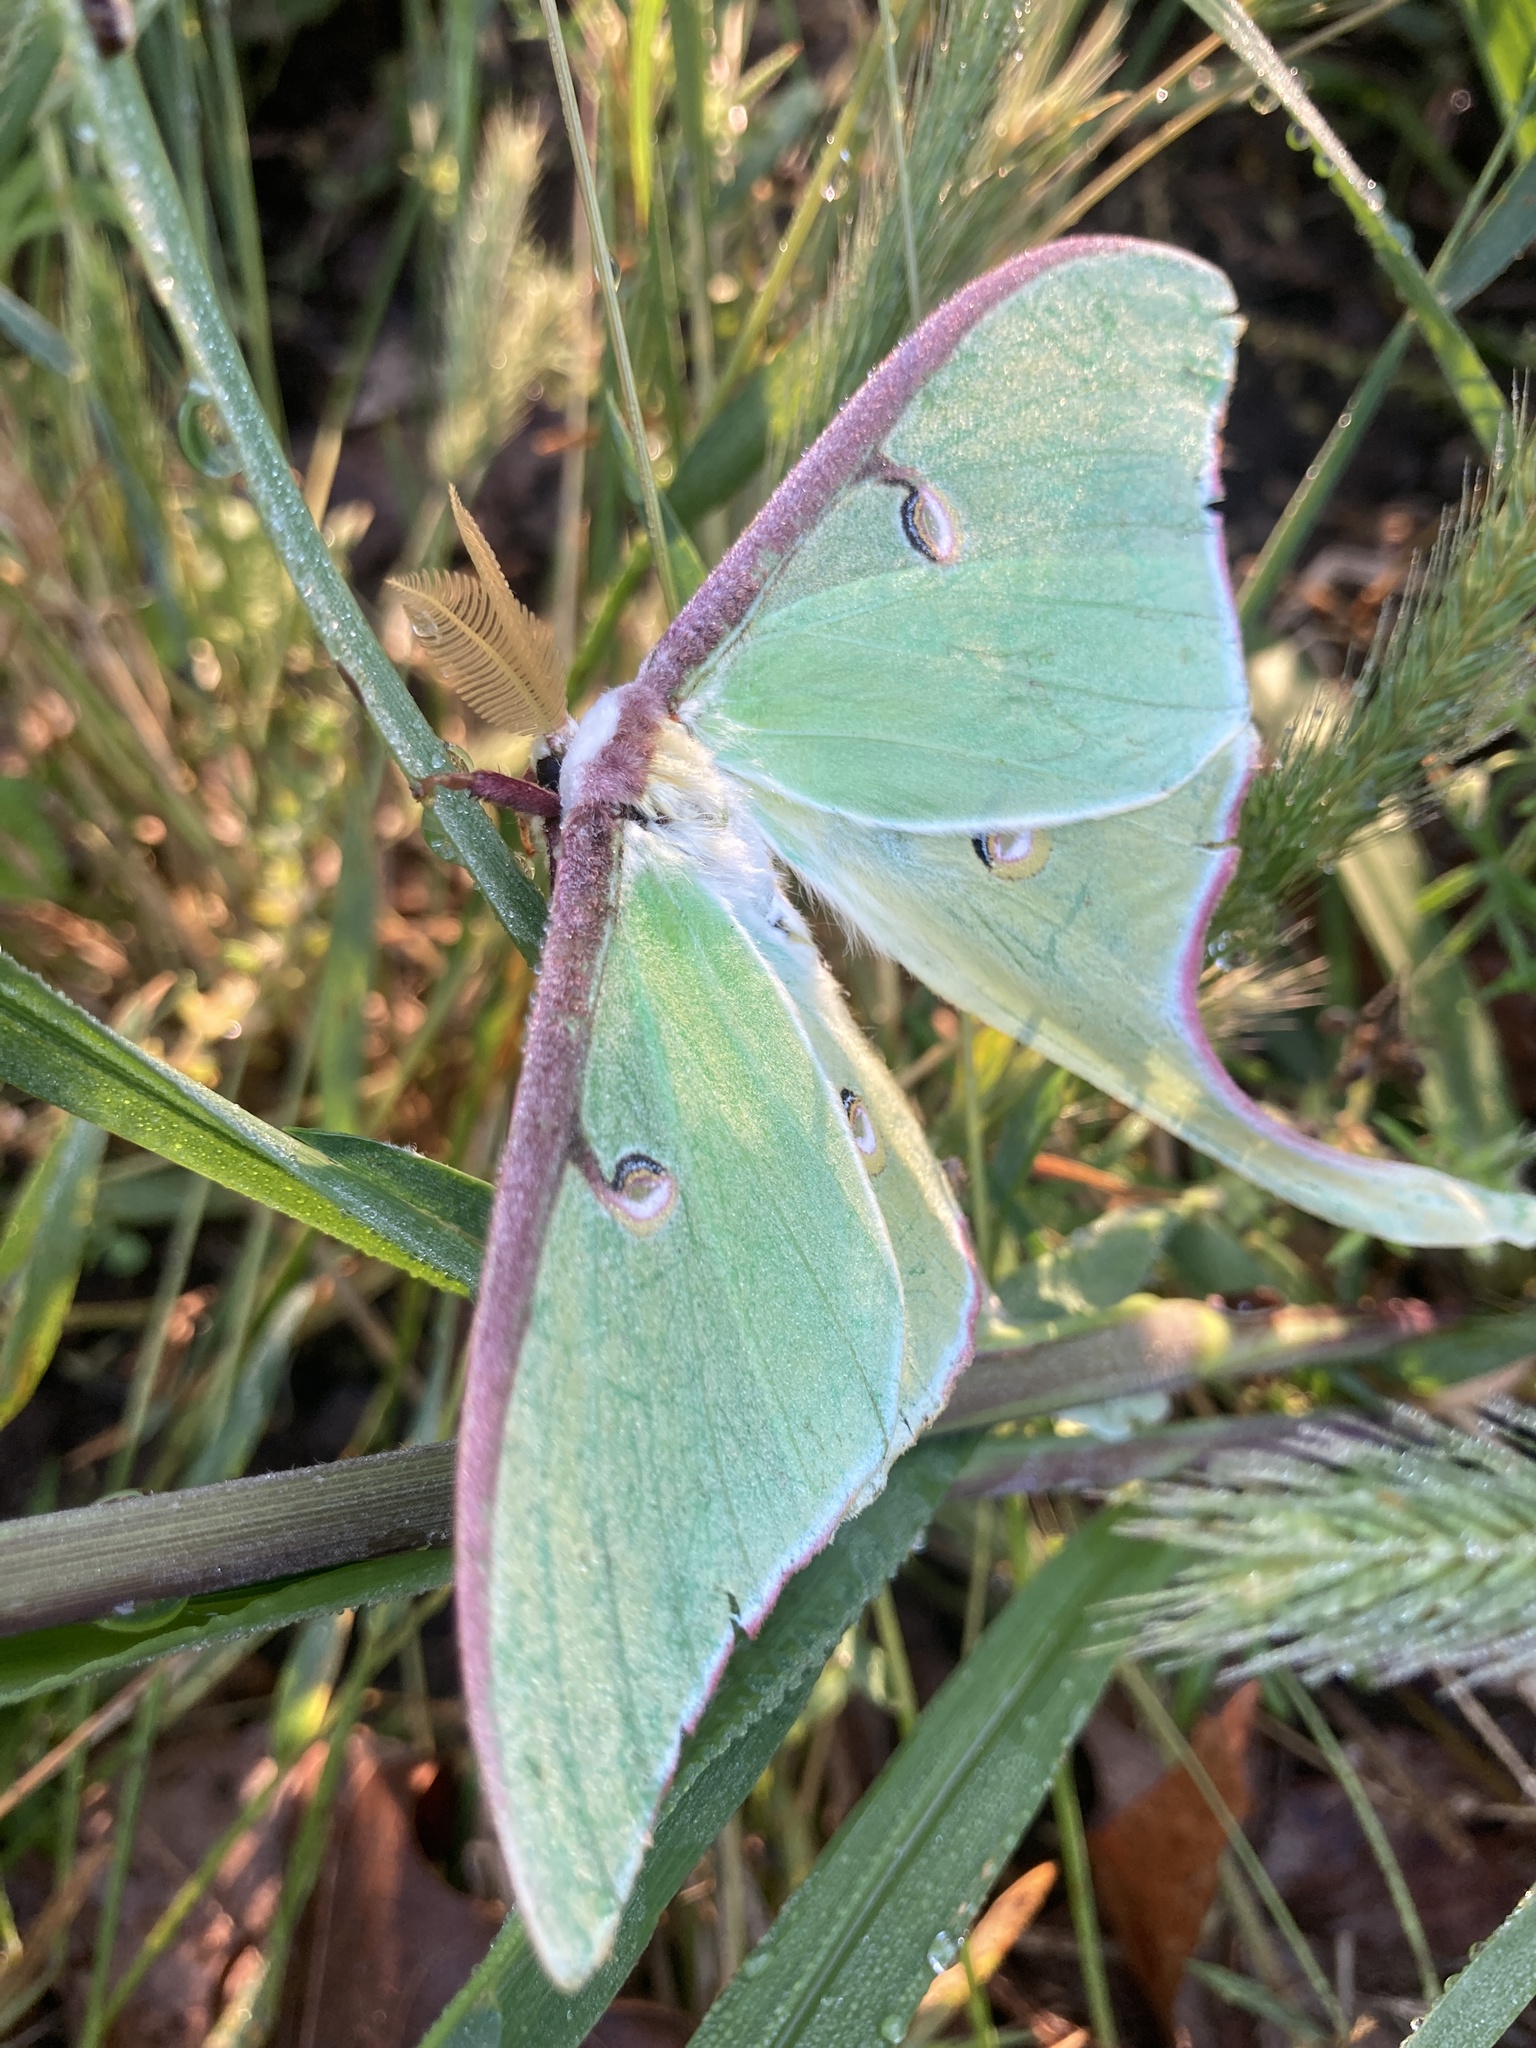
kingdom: Animalia
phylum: Arthropoda
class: Insecta
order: Lepidoptera
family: Saturniidae
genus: Actias
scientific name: Actias luna
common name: Luna moth
